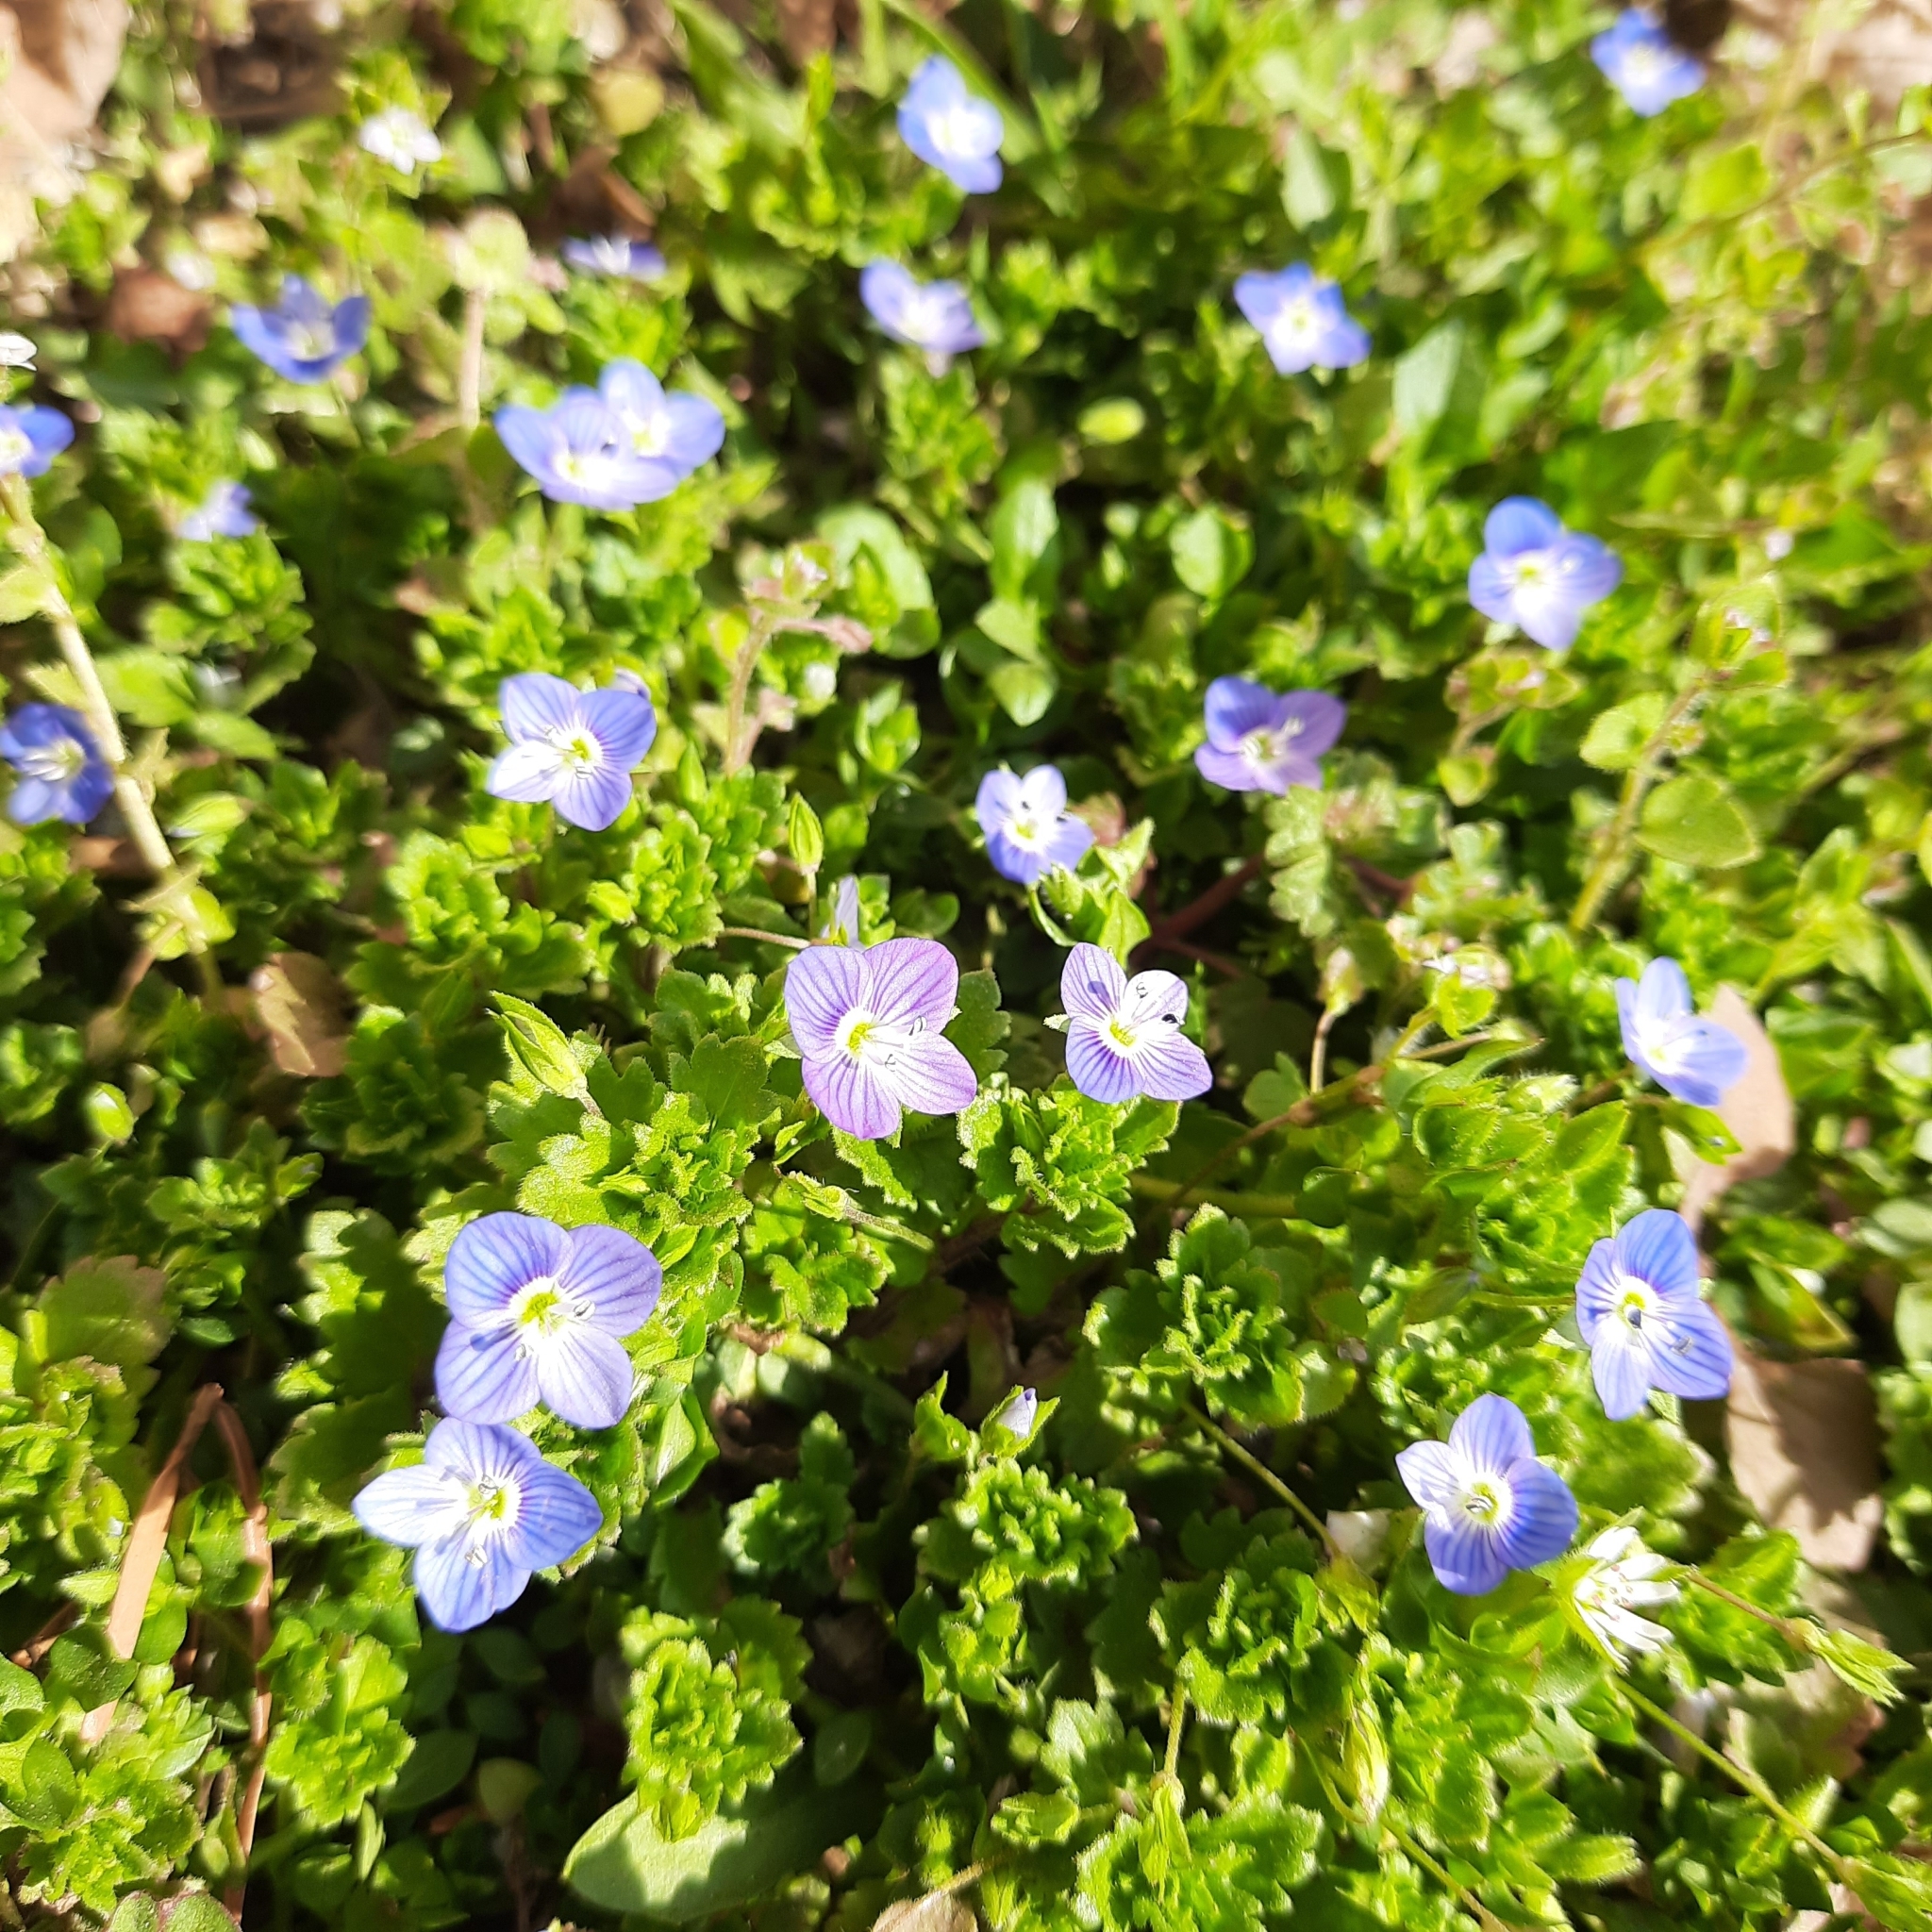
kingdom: Plantae
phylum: Tracheophyta
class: Magnoliopsida
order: Lamiales
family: Plantaginaceae
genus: Veronica
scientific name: Veronica persica
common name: Common field-speedwell
